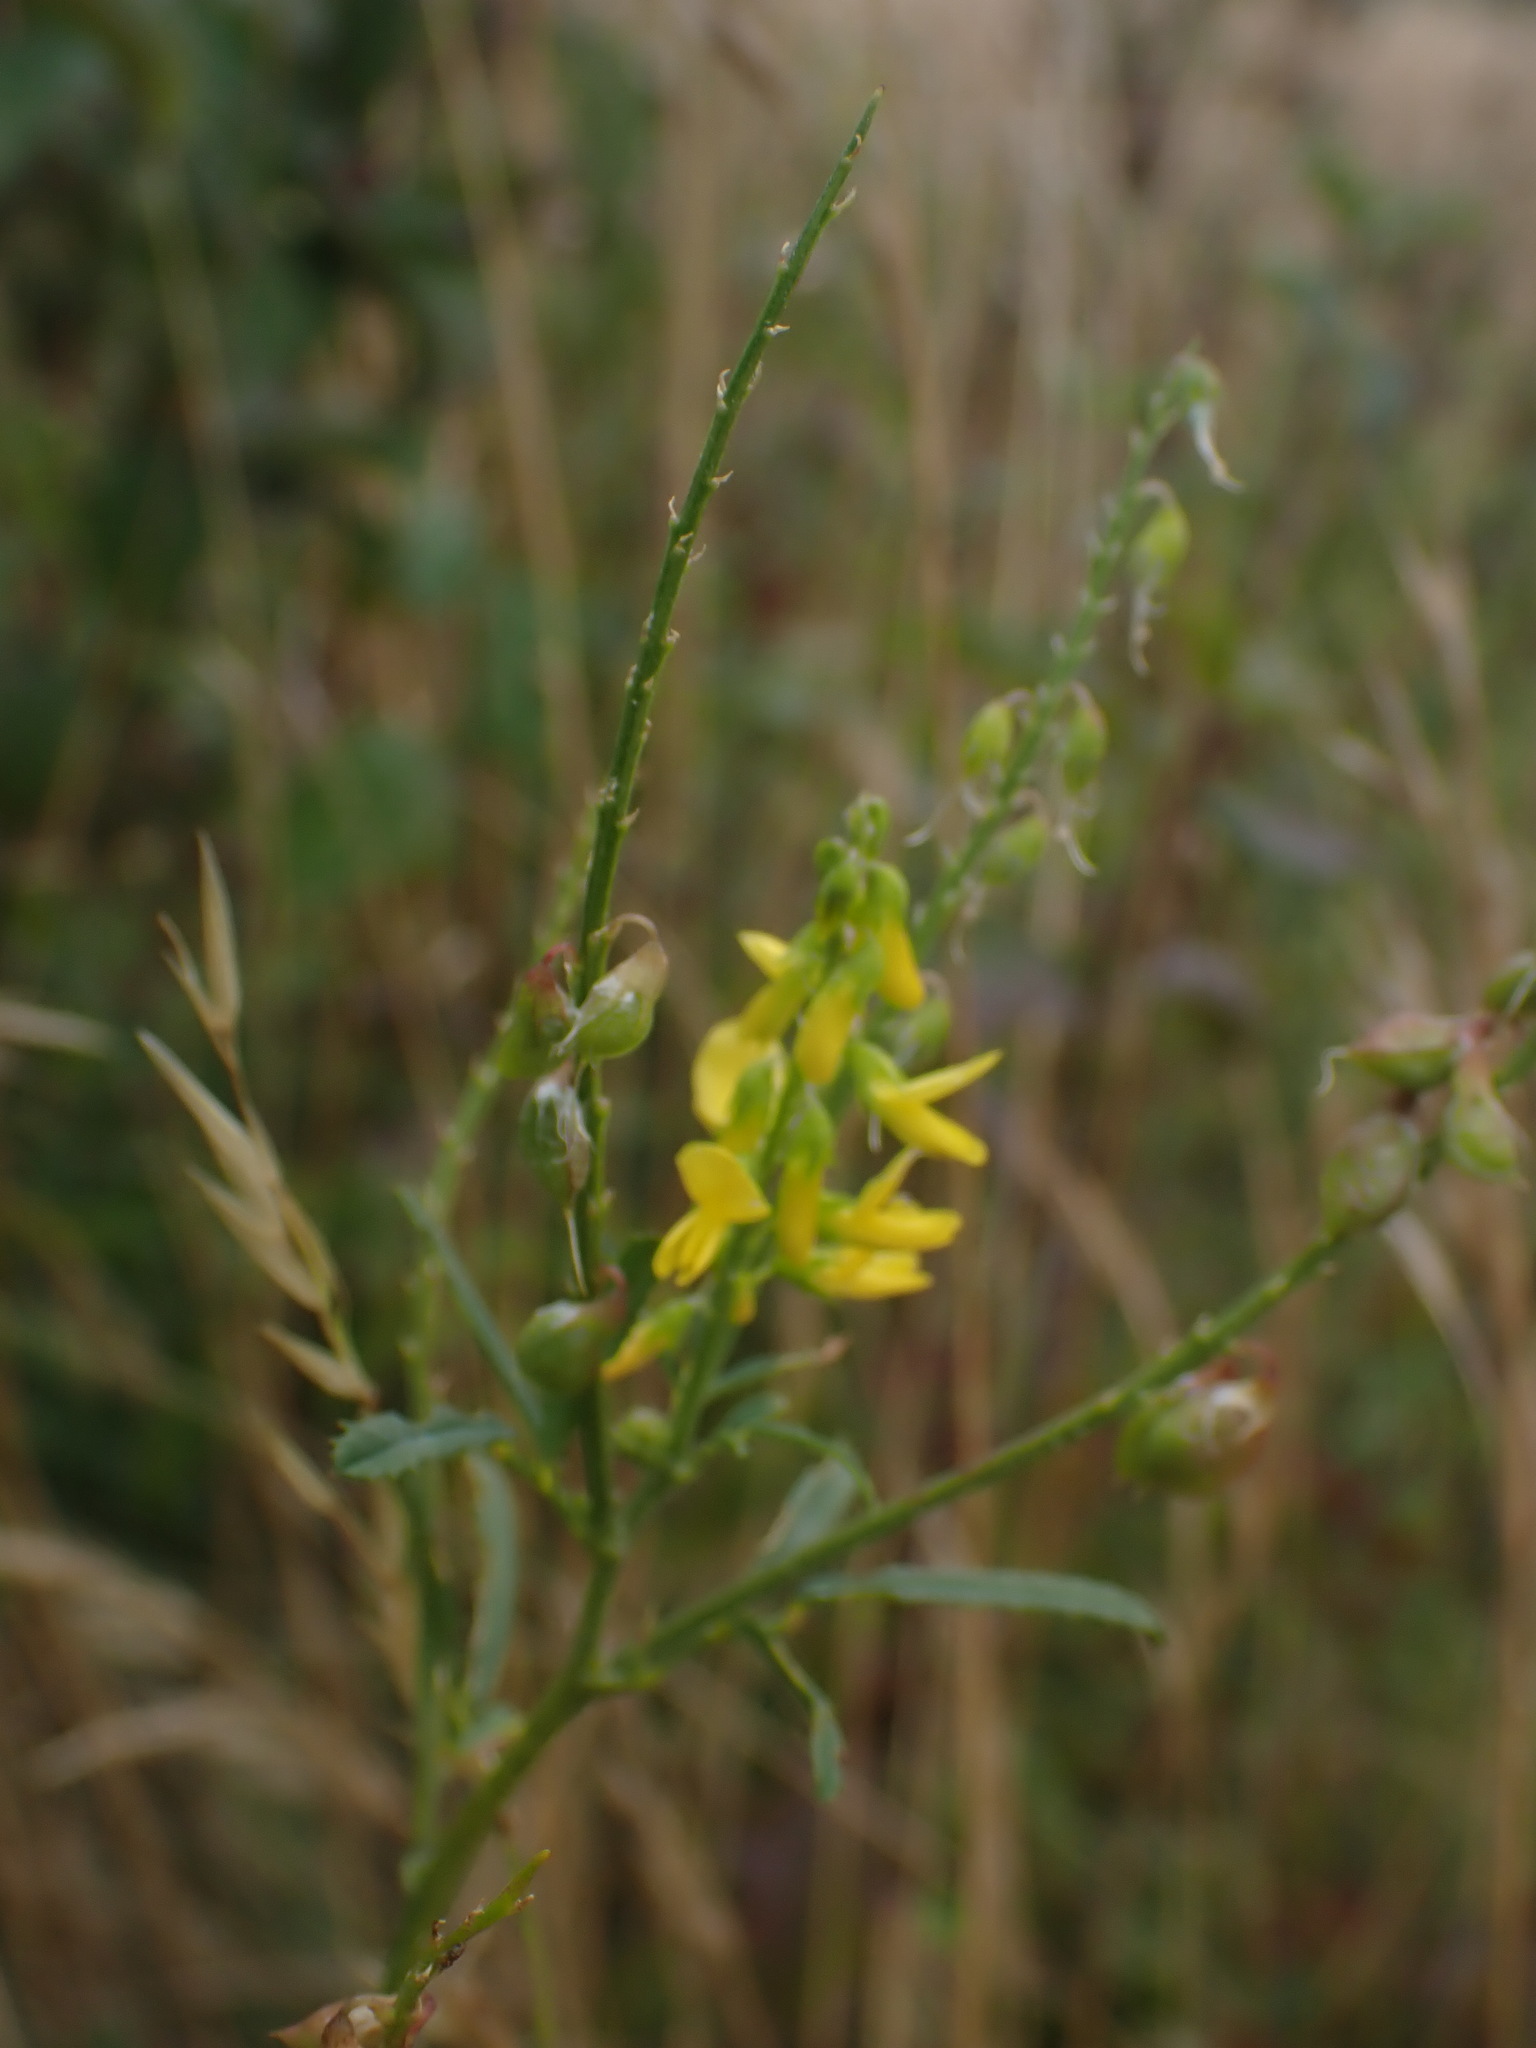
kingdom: Plantae
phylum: Tracheophyta
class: Magnoliopsida
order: Fabales
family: Fabaceae
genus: Melilotus
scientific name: Melilotus officinalis
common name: Sweetclover
